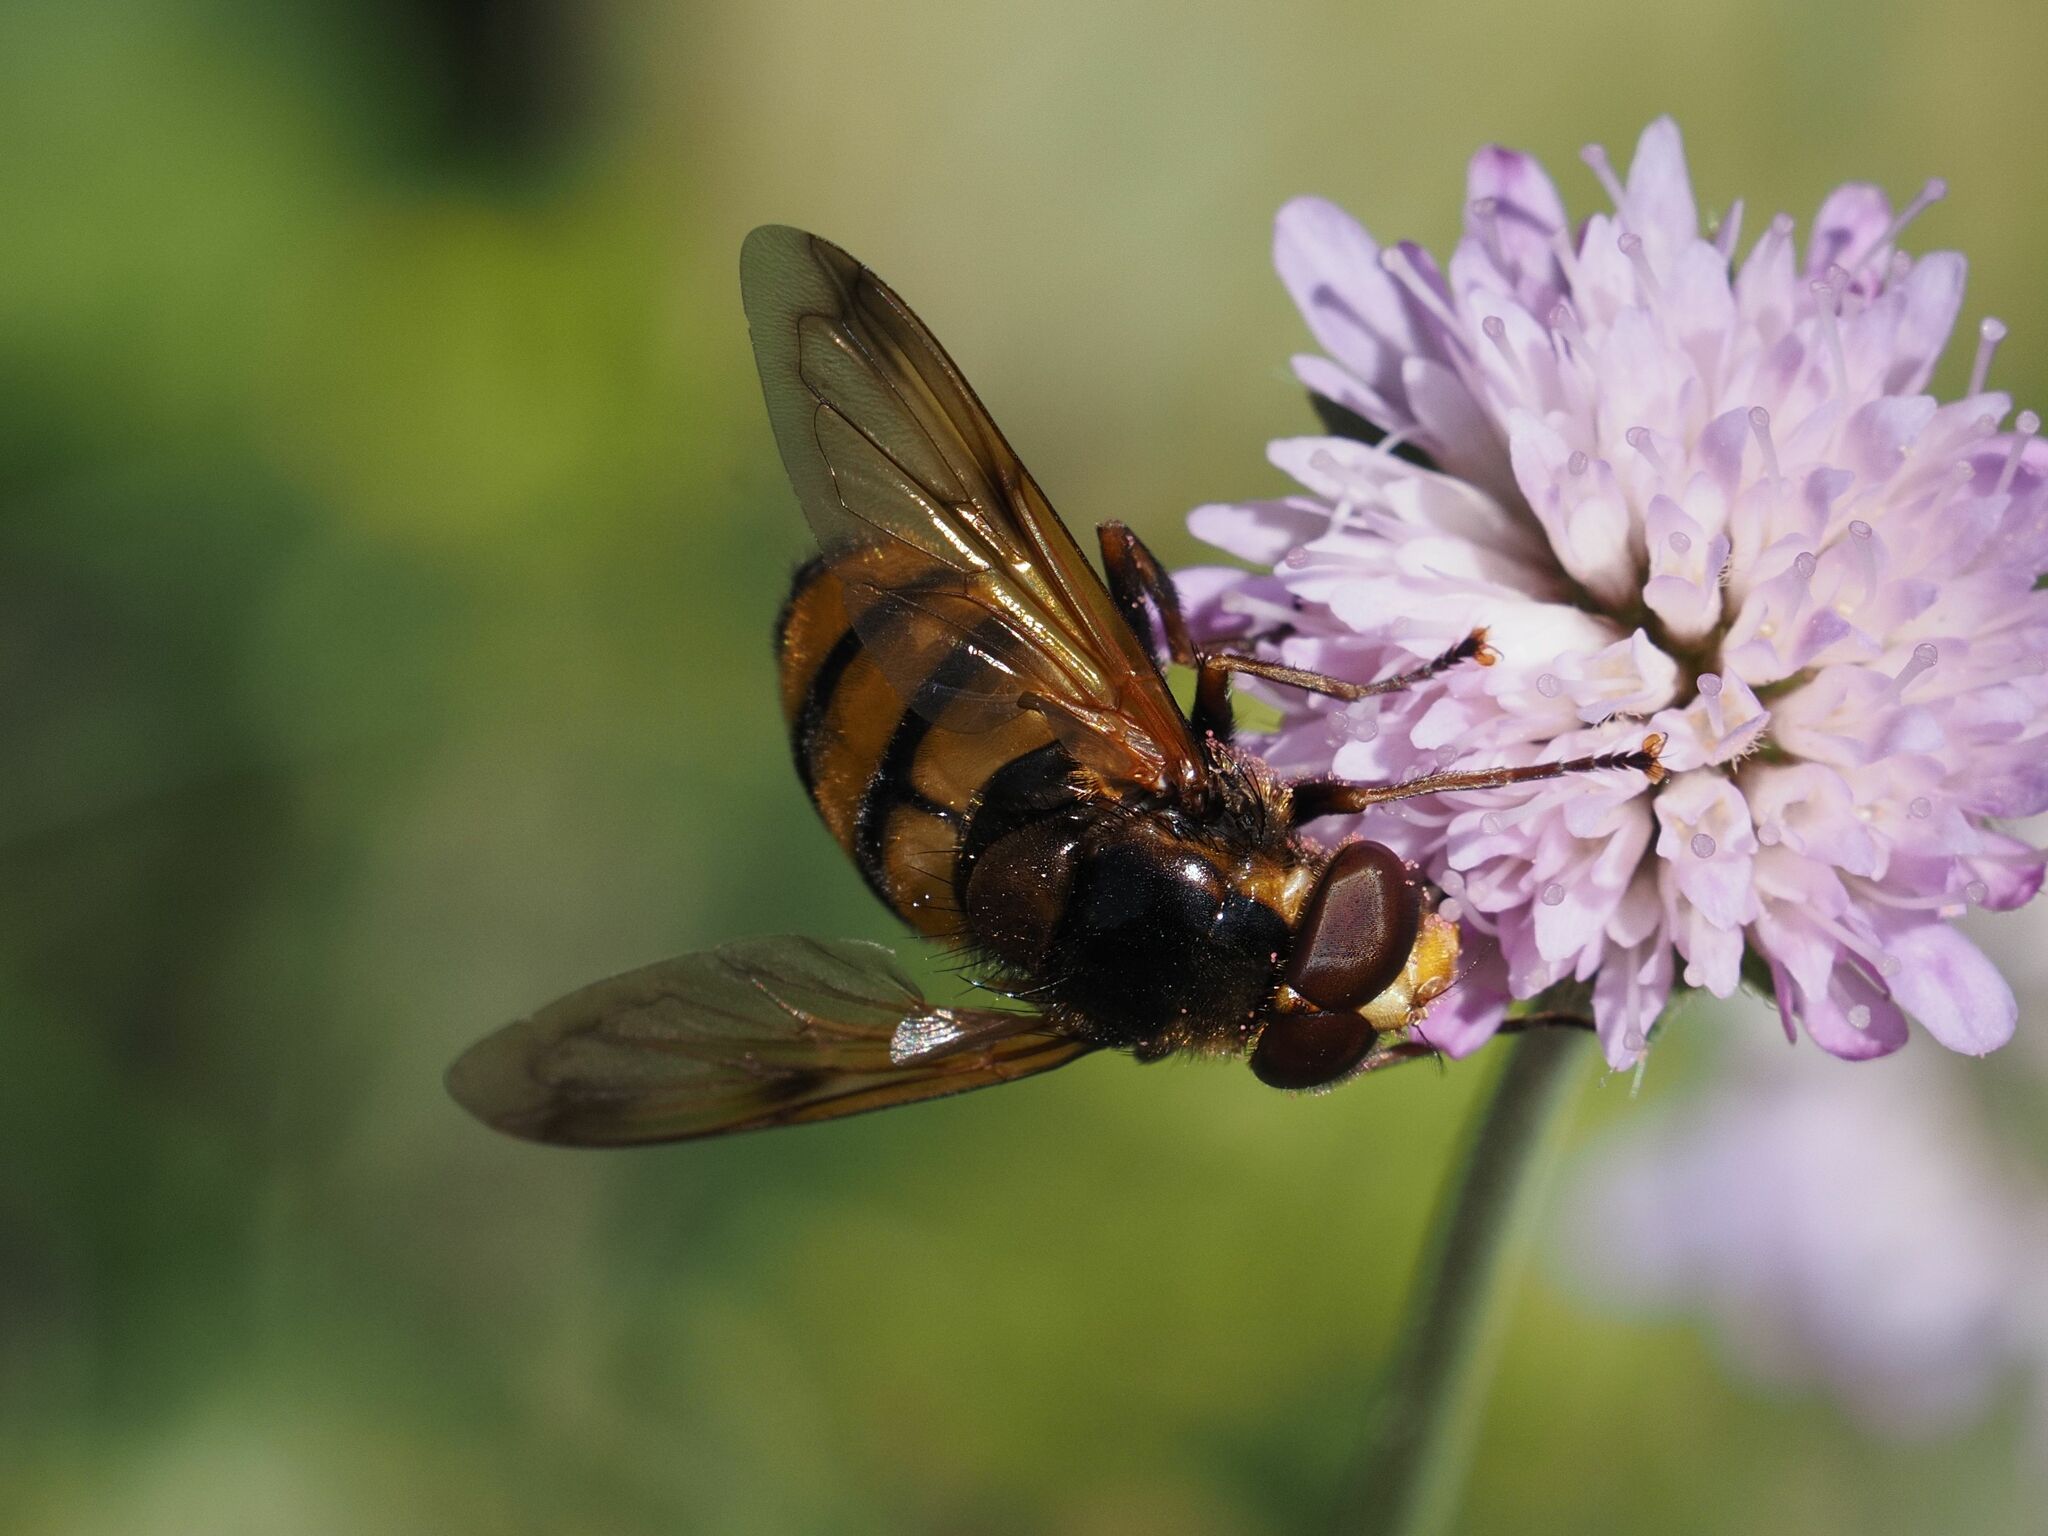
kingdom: Animalia
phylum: Arthropoda
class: Insecta
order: Diptera
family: Syrphidae
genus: Volucella
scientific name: Volucella inanis
